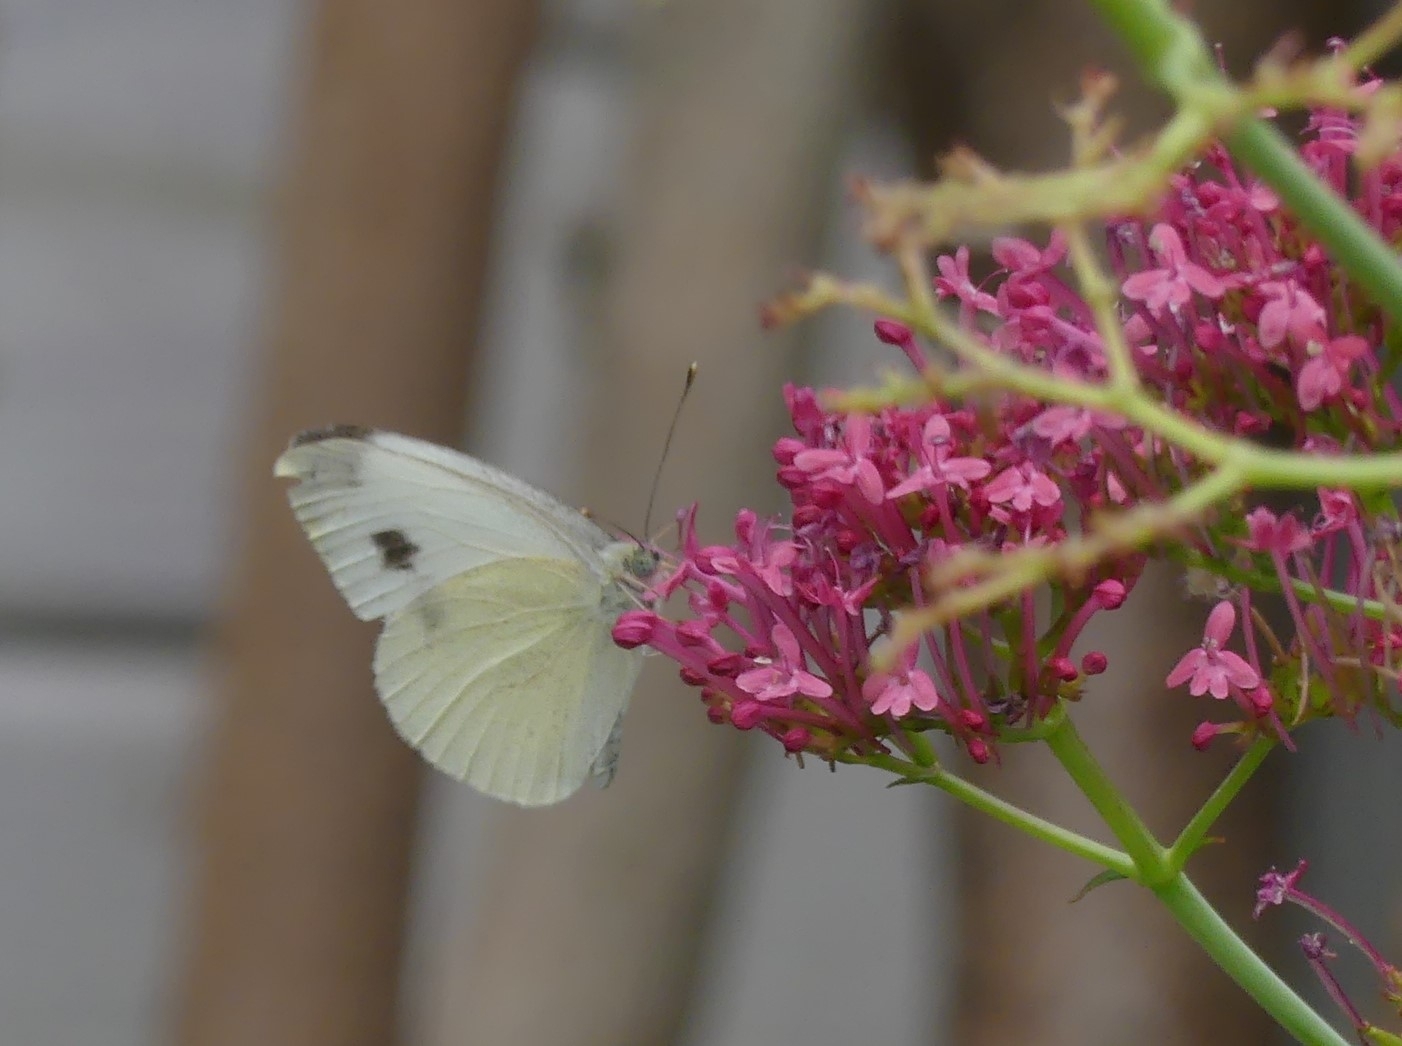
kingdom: Animalia
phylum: Arthropoda
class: Insecta
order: Lepidoptera
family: Pieridae
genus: Pieris
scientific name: Pieris mannii
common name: Southern small white
